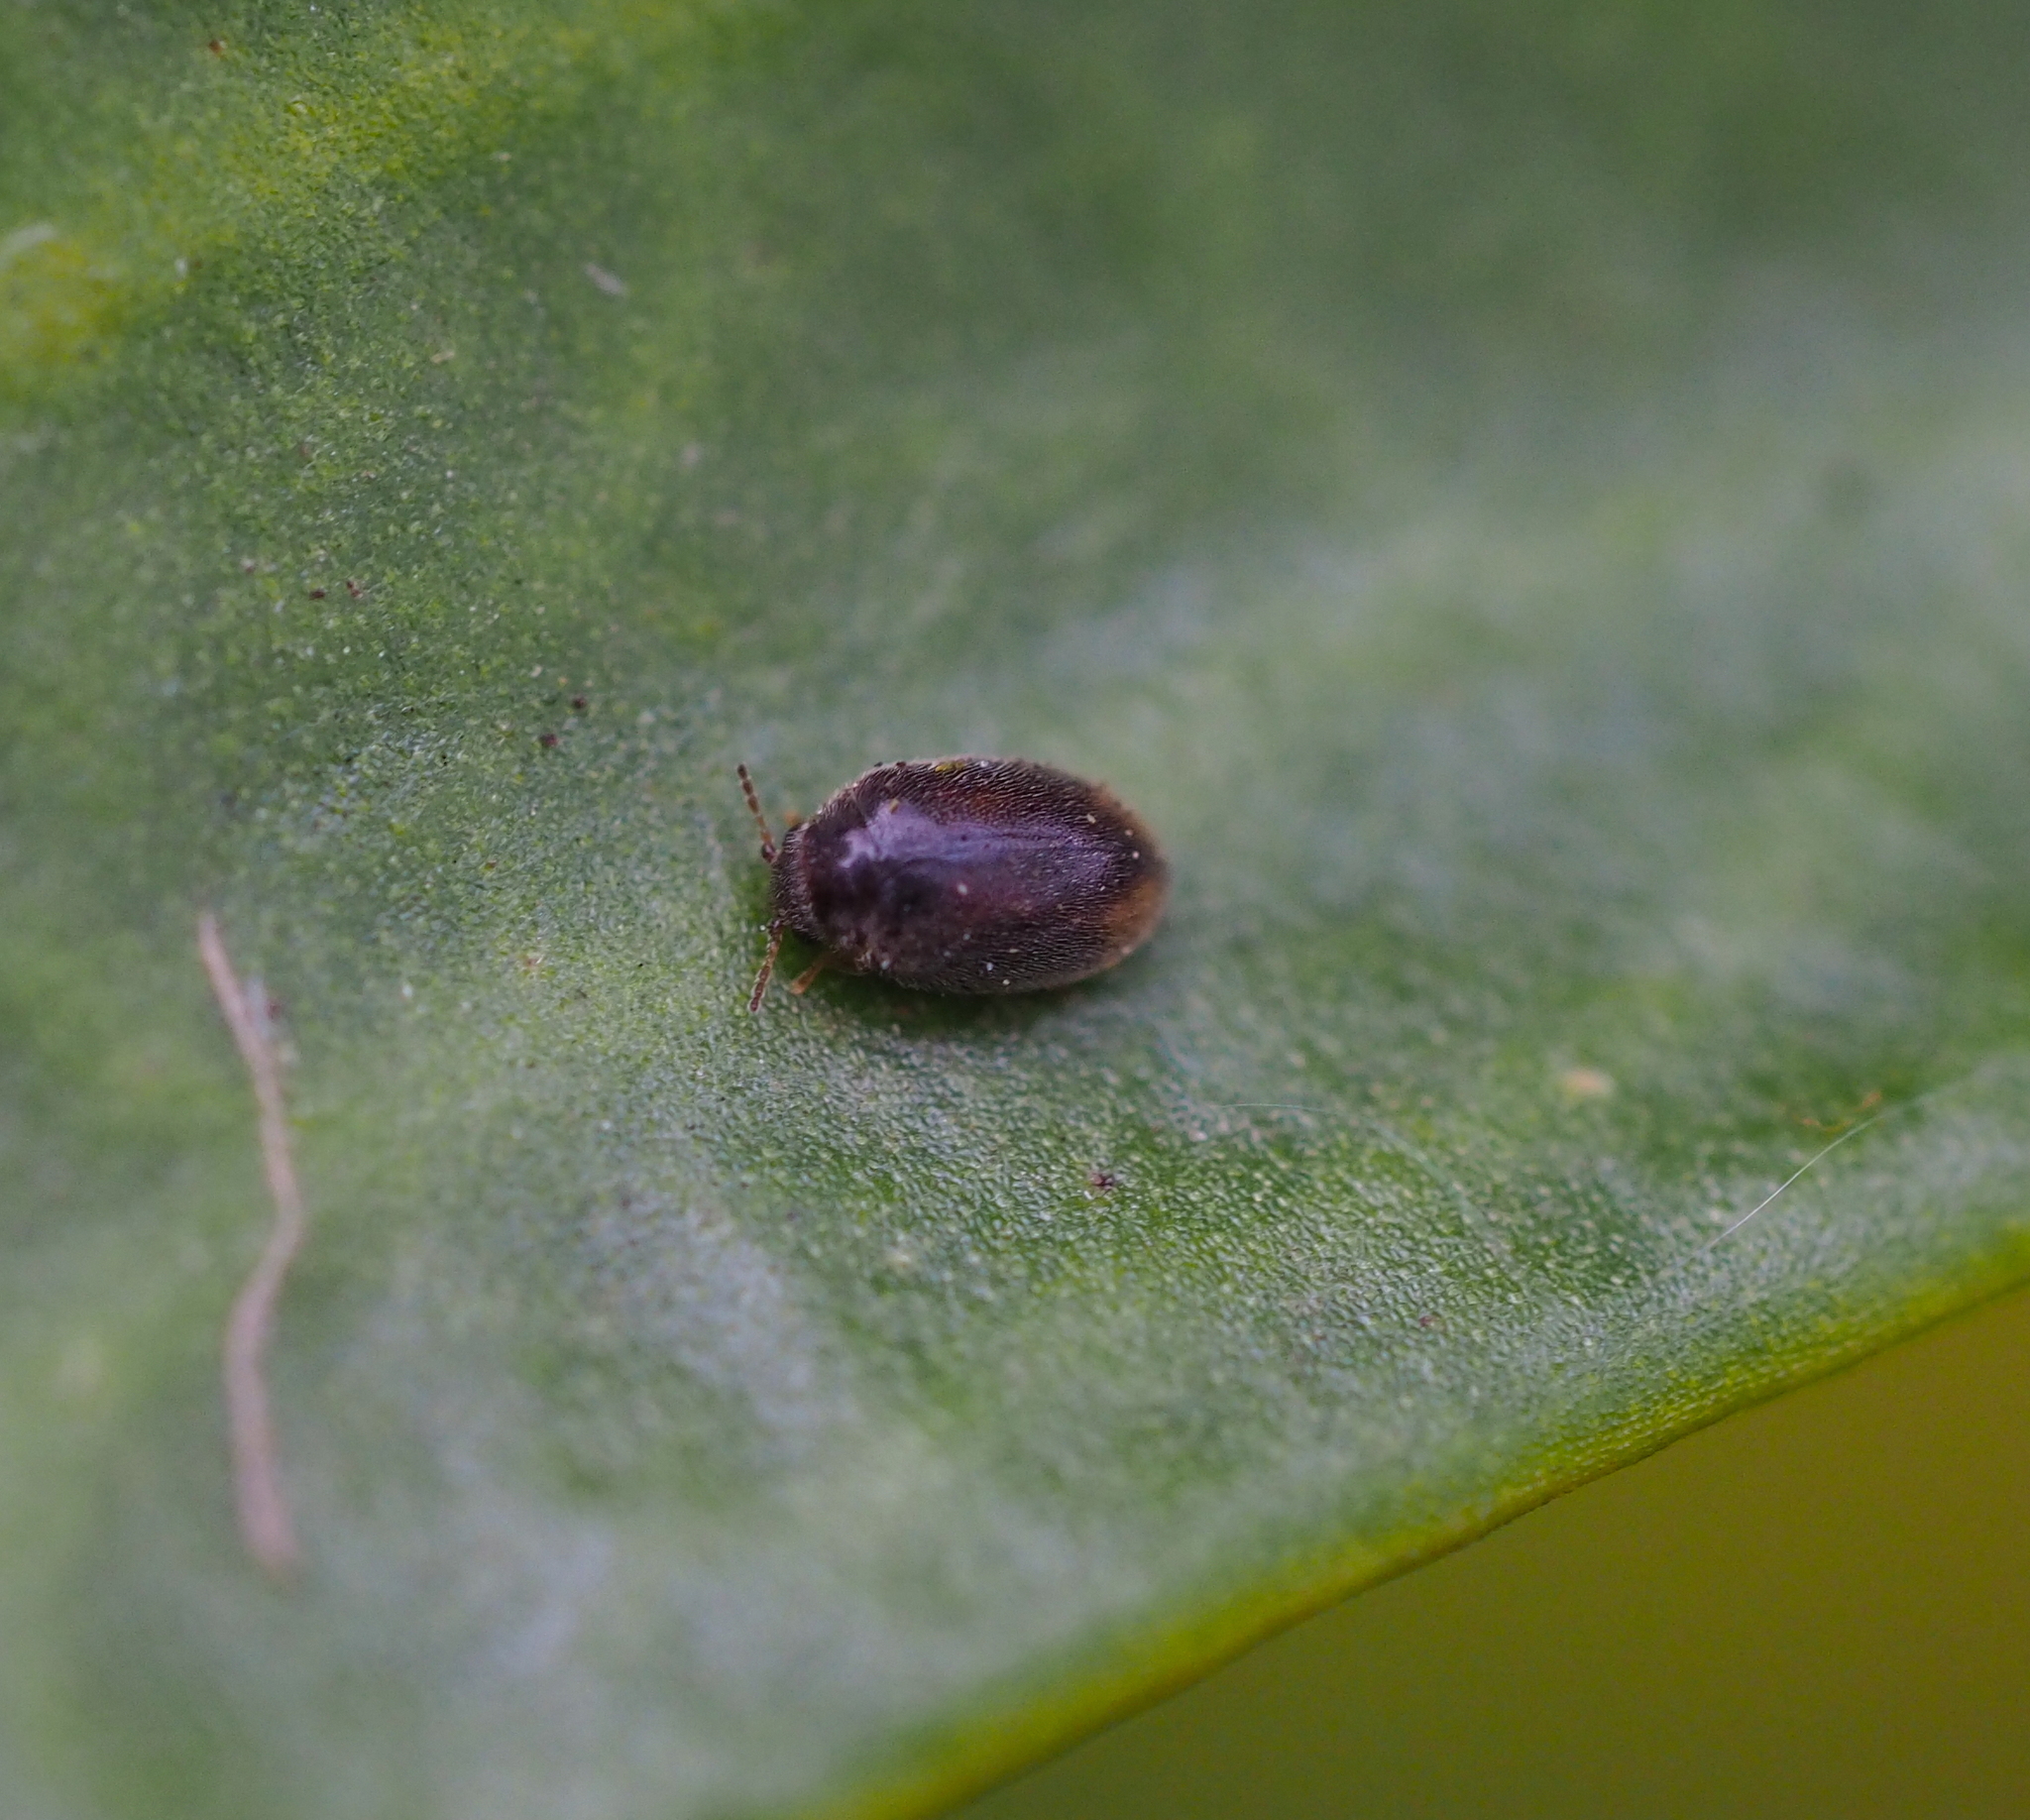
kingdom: Animalia
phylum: Arthropoda
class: Insecta
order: Coleoptera
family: Scirtidae
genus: Cyphon
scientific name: Cyphon padi
